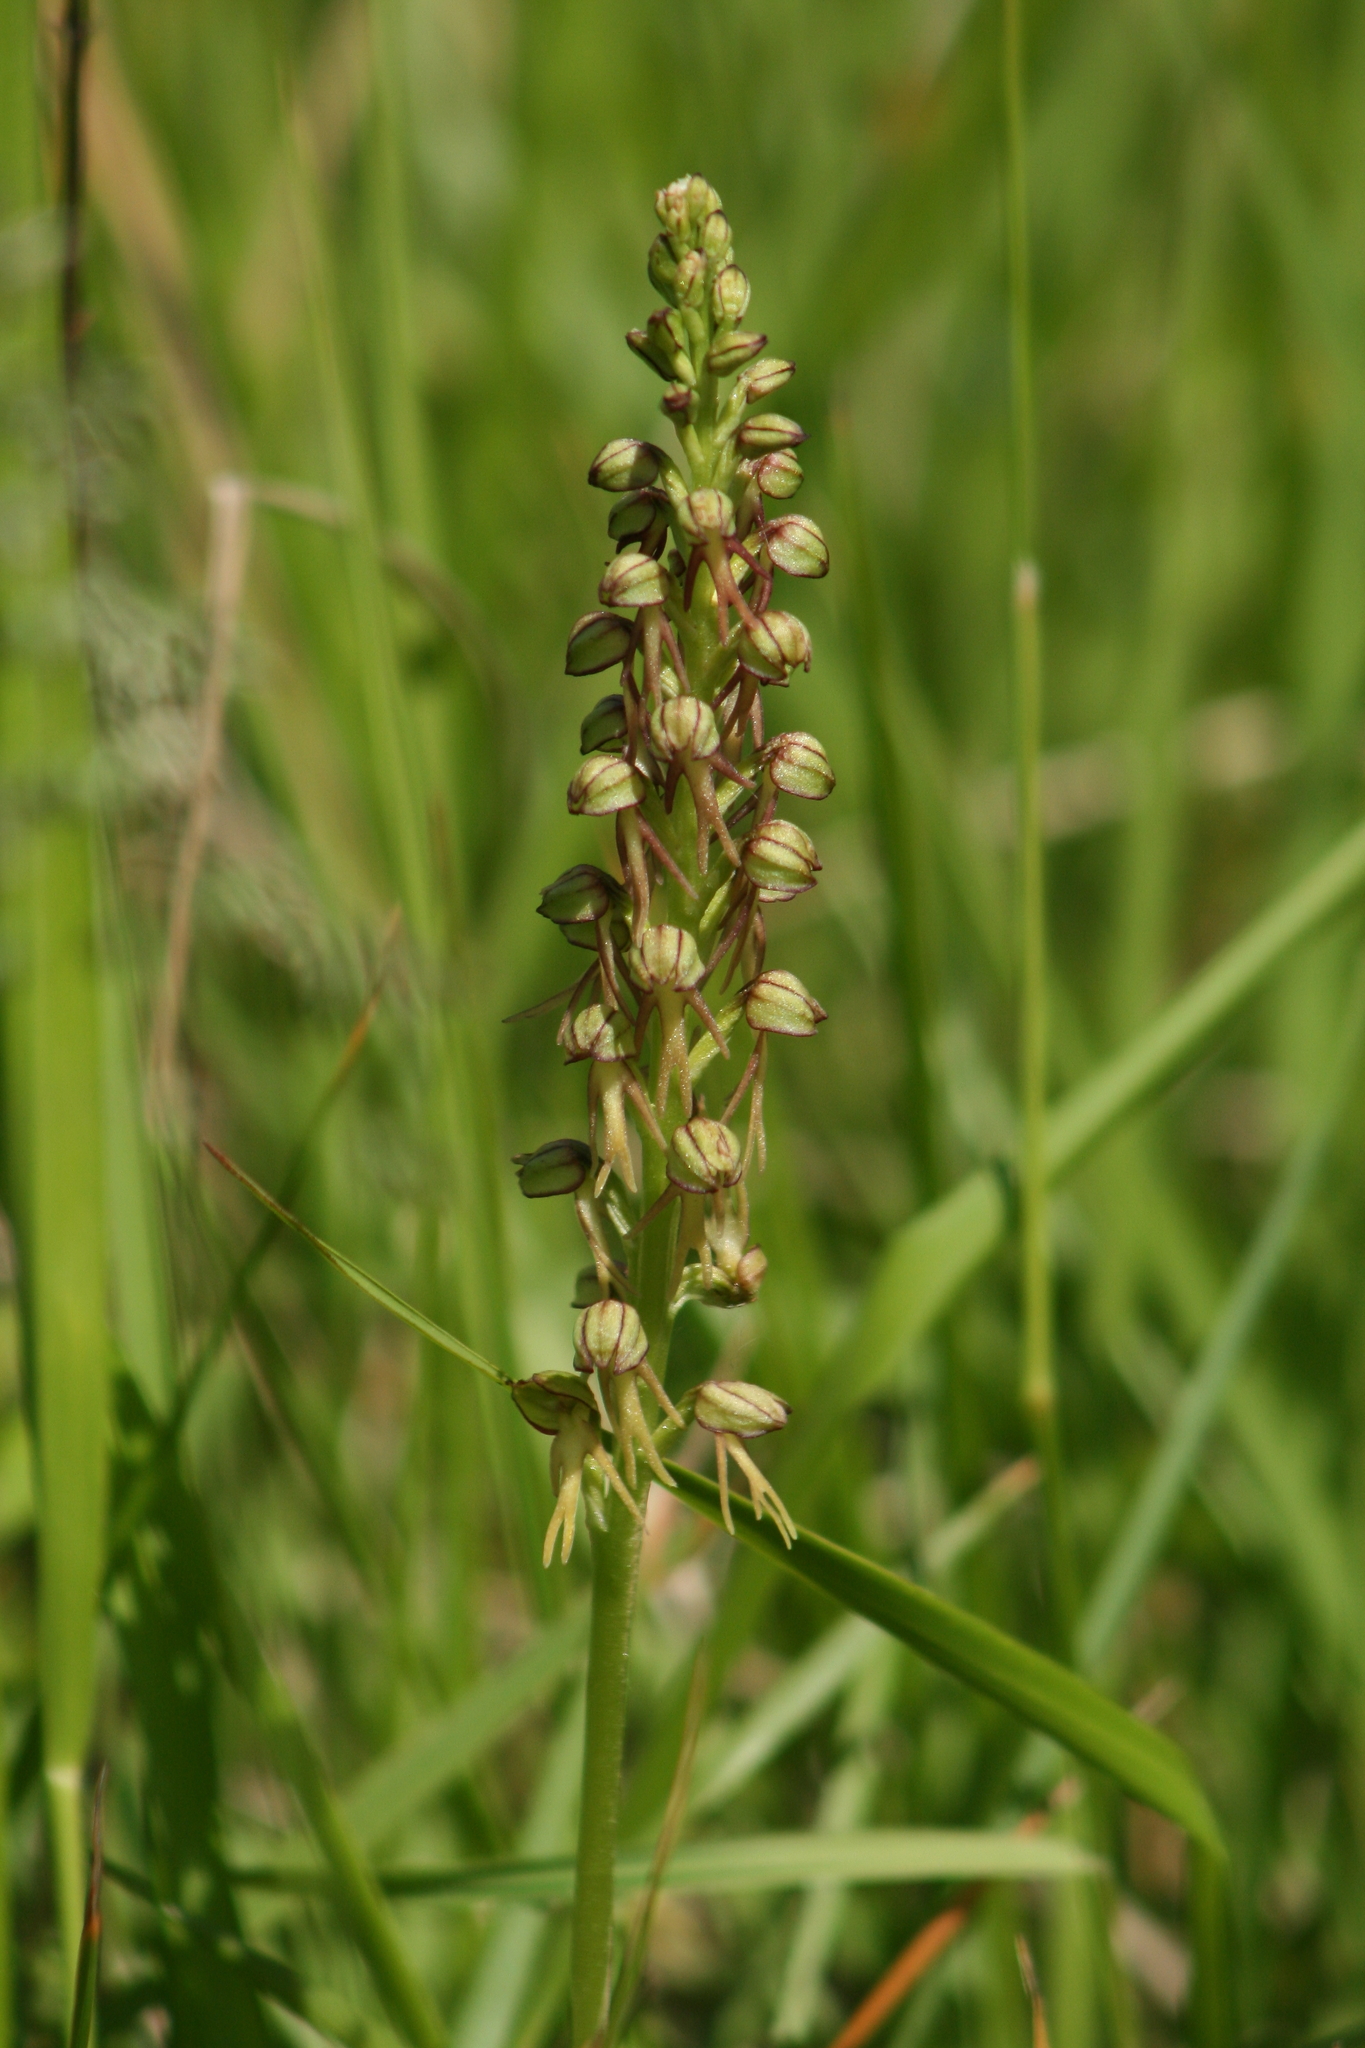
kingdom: Plantae
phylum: Tracheophyta
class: Liliopsida
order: Asparagales
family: Orchidaceae
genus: Orchis
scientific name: Orchis anthropophora
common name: Man orchid
